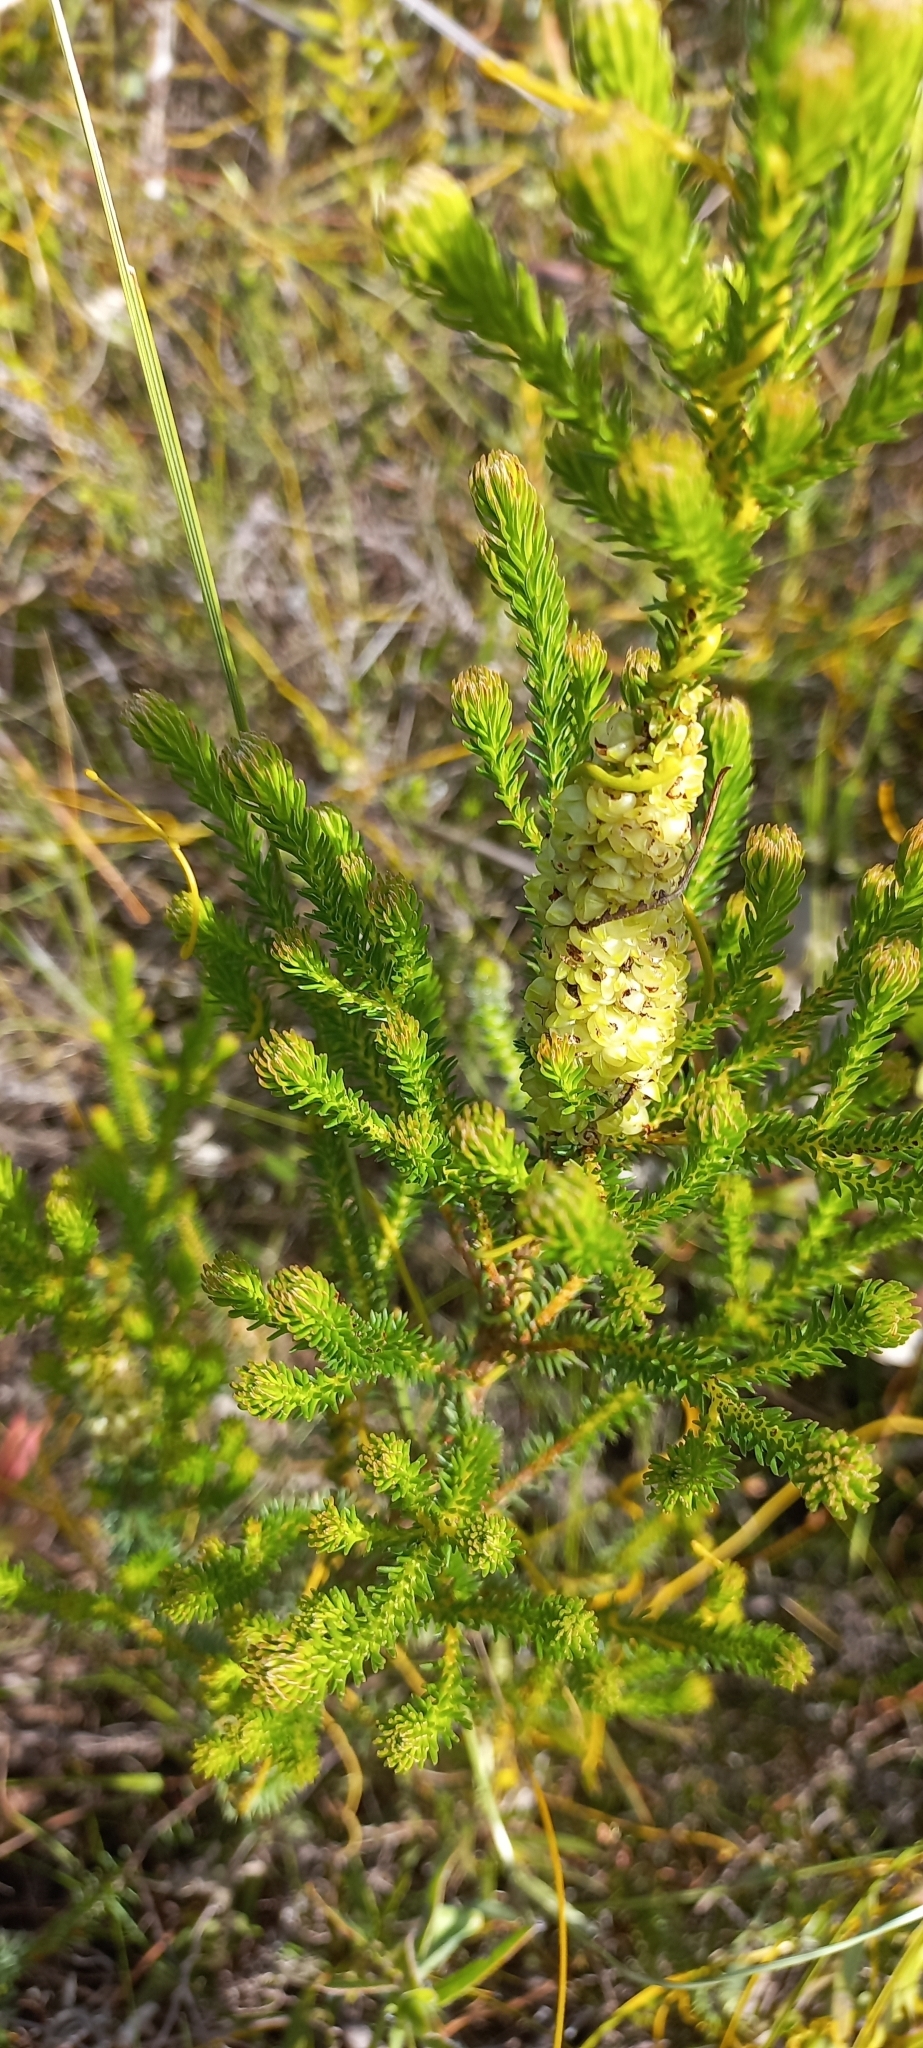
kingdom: Plantae
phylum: Tracheophyta
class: Magnoliopsida
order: Ericales
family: Ericaceae
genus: Erica
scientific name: Erica sessiliflora
